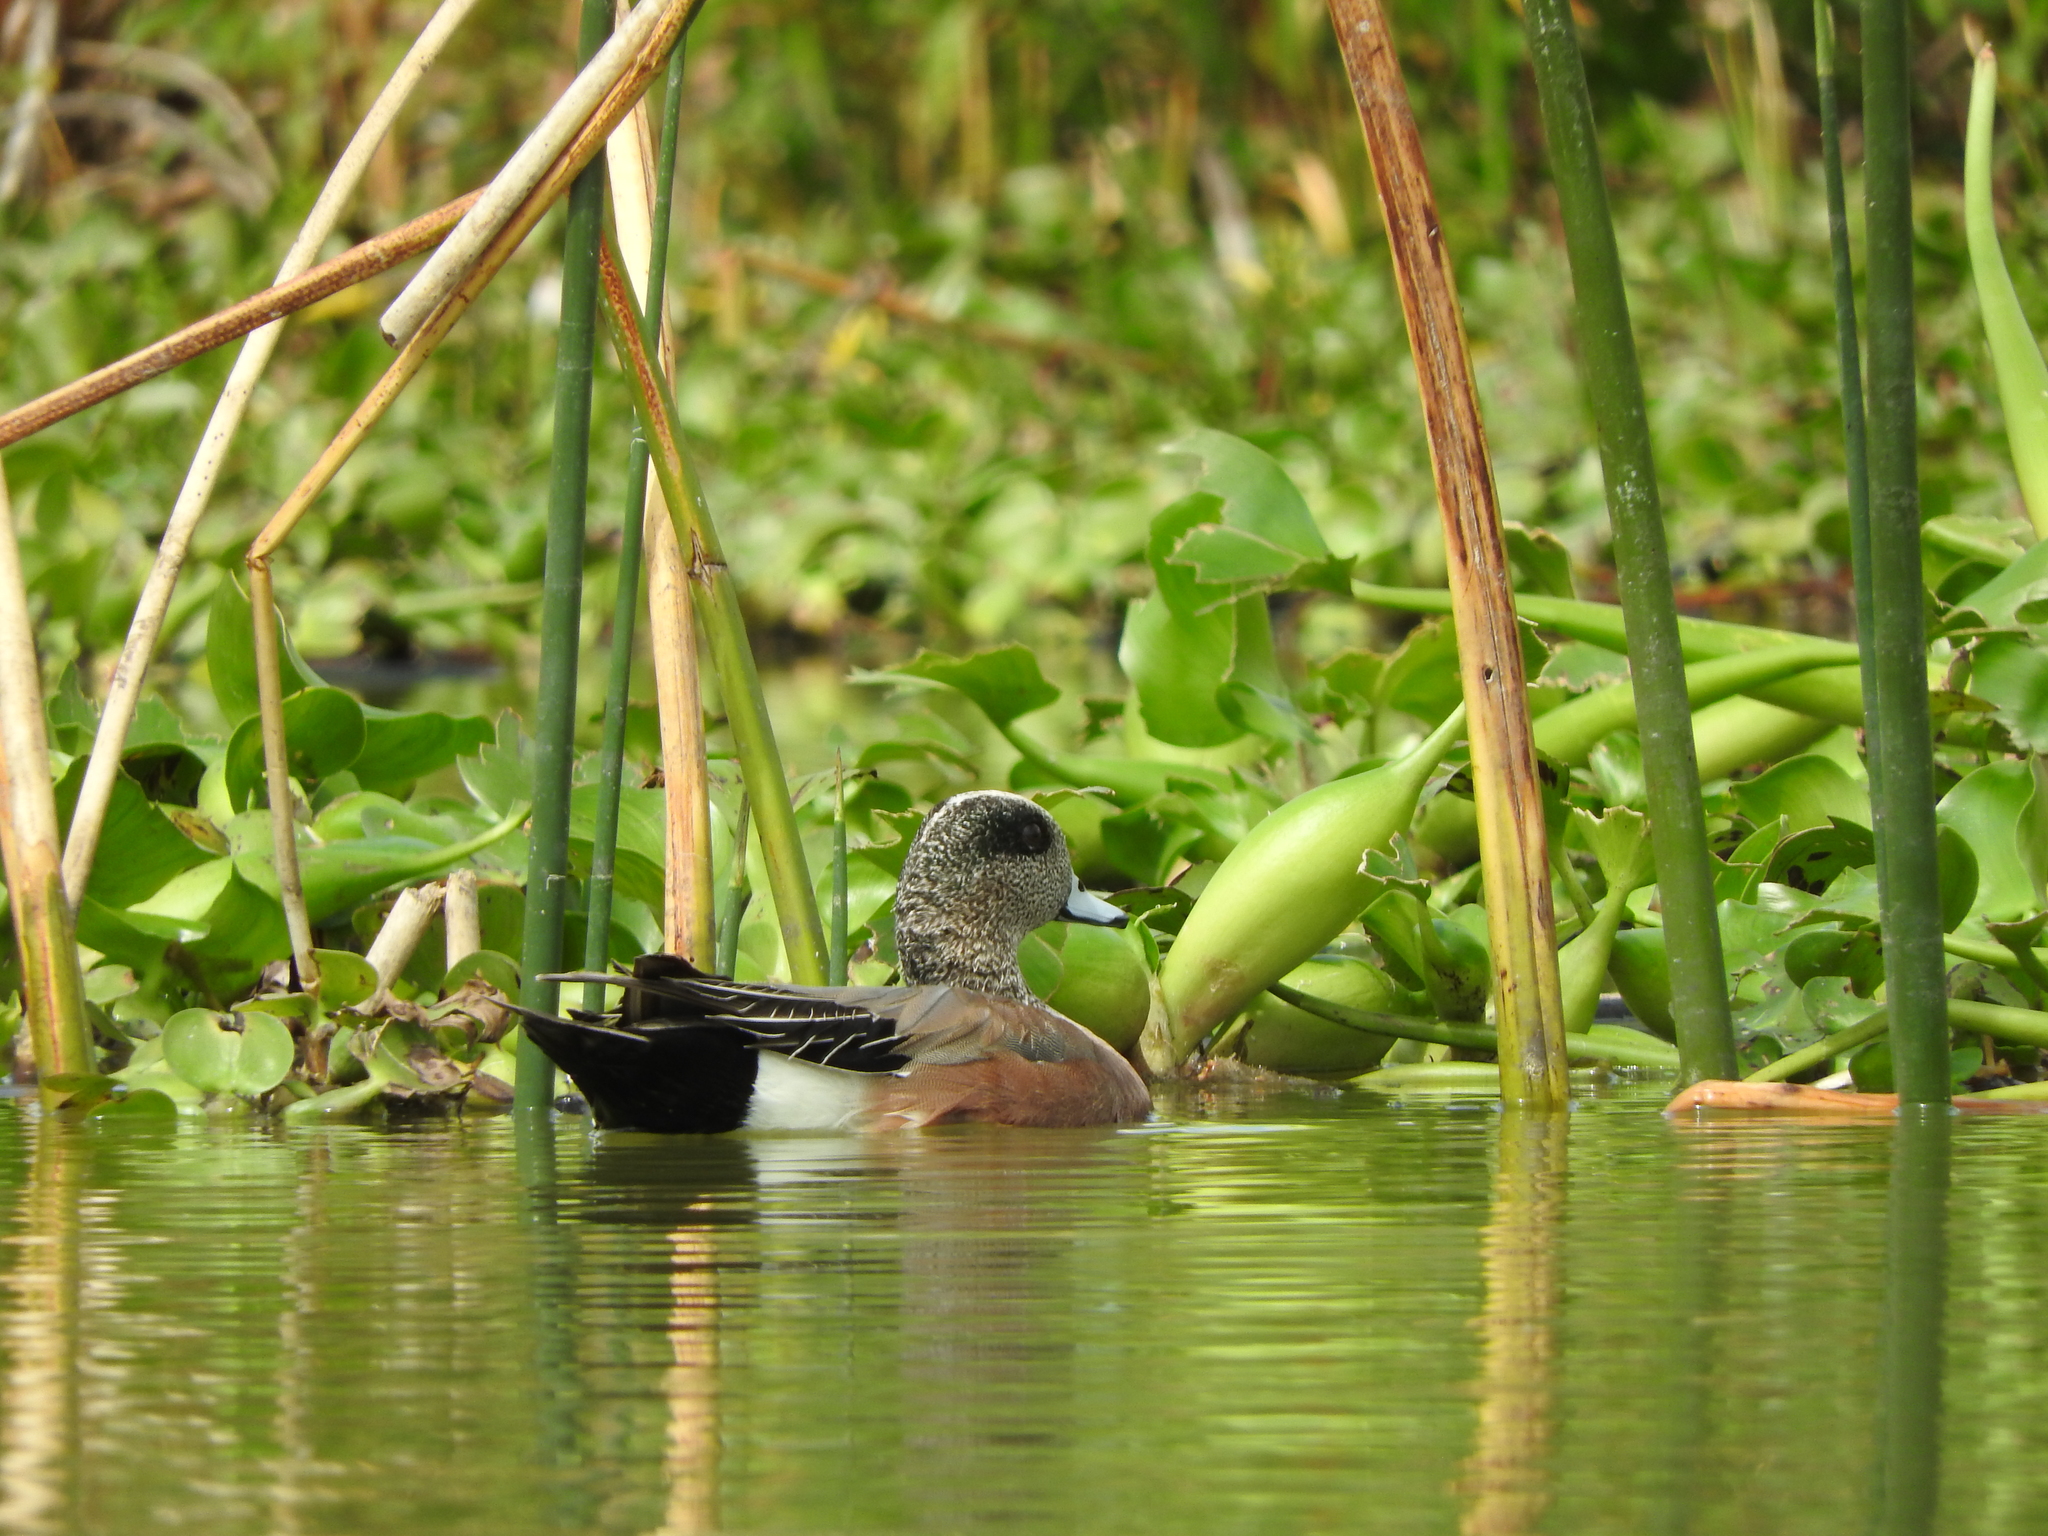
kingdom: Animalia
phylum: Chordata
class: Aves
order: Anseriformes
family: Anatidae
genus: Mareca
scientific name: Mareca americana
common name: American wigeon
